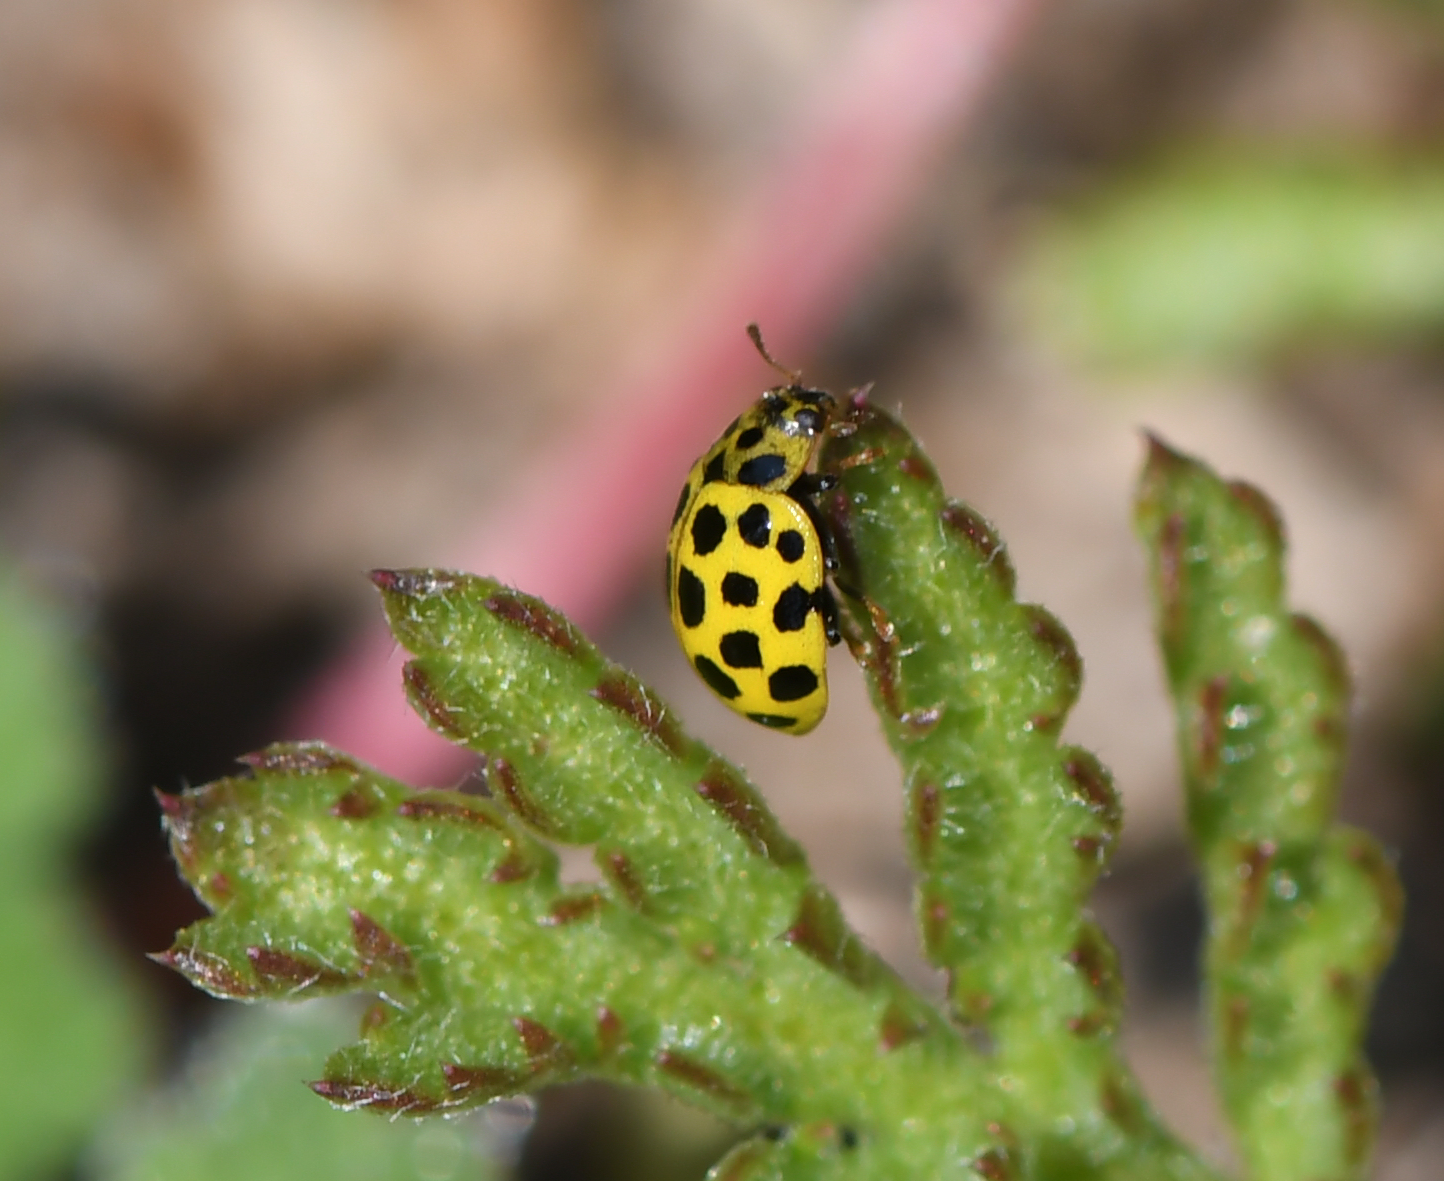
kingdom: Animalia
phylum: Arthropoda
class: Insecta
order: Coleoptera
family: Coccinellidae
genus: Psyllobora
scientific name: Psyllobora vigintiduopunctata
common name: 22-spot ladybird
